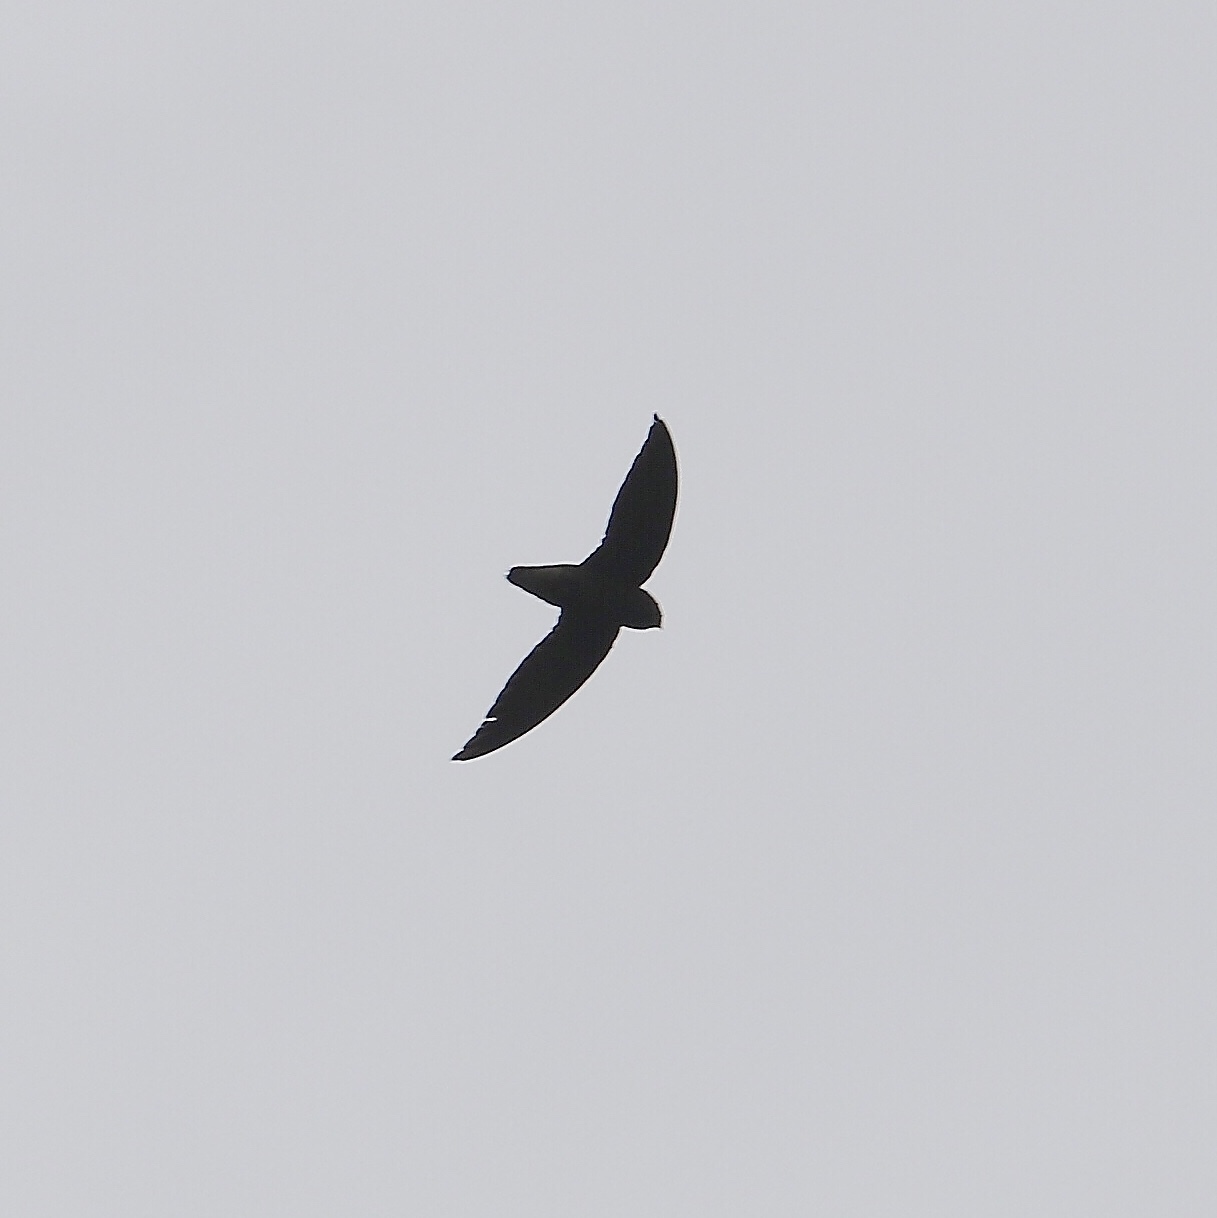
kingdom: Animalia
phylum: Chordata
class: Aves
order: Apodiformes
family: Apodidae
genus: Chaetura
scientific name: Chaetura brachyura
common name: Short-tailed swift
